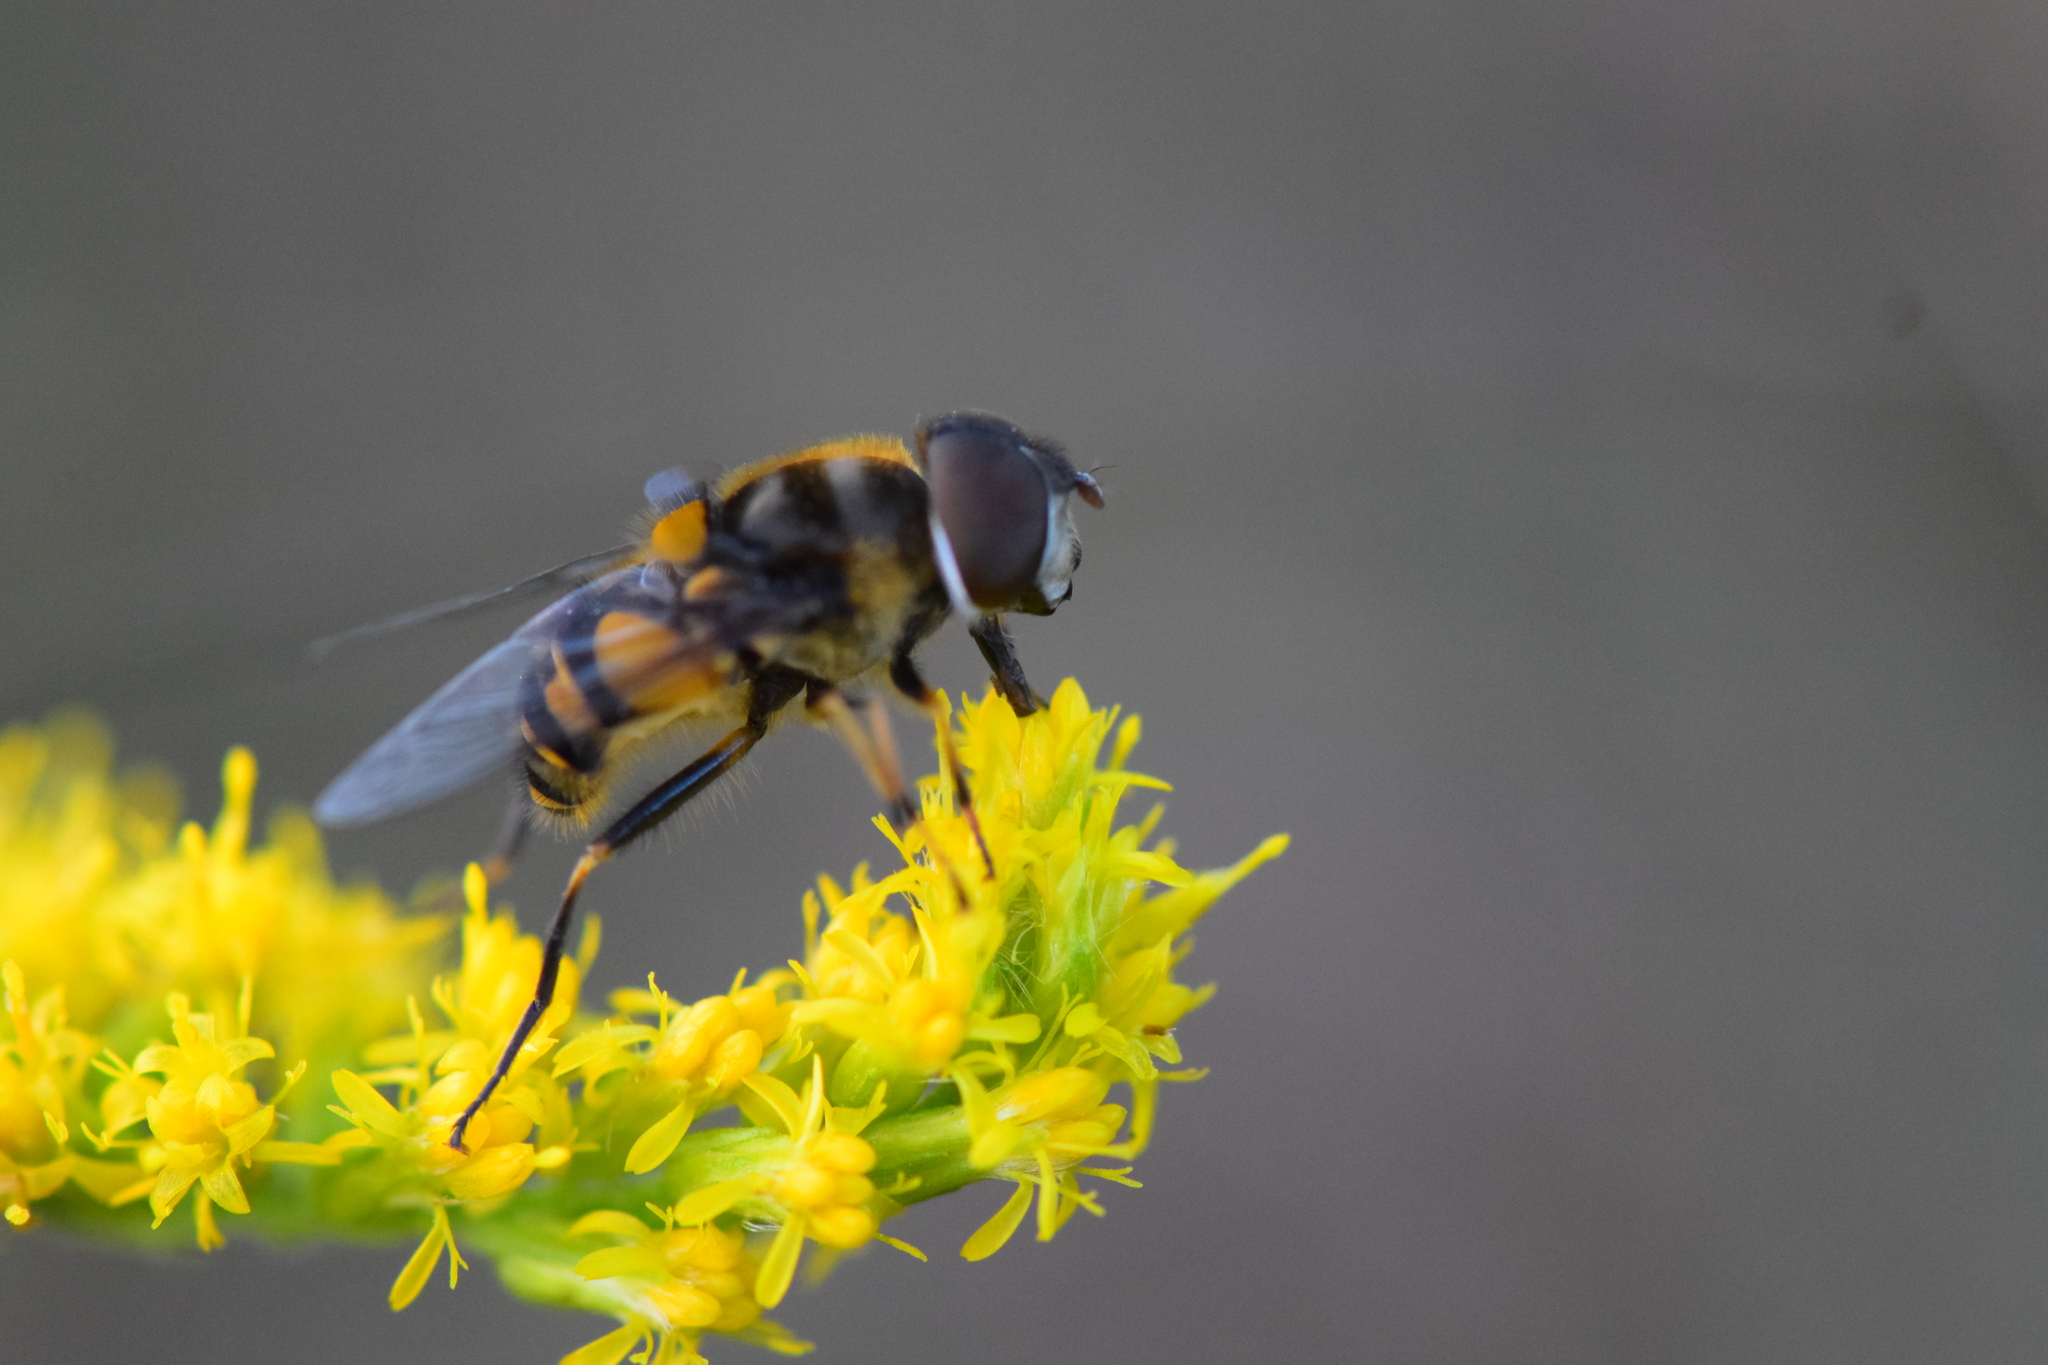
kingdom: Animalia
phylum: Arthropoda
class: Insecta
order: Diptera
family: Syrphidae
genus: Eristalis
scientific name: Eristalis transversa
